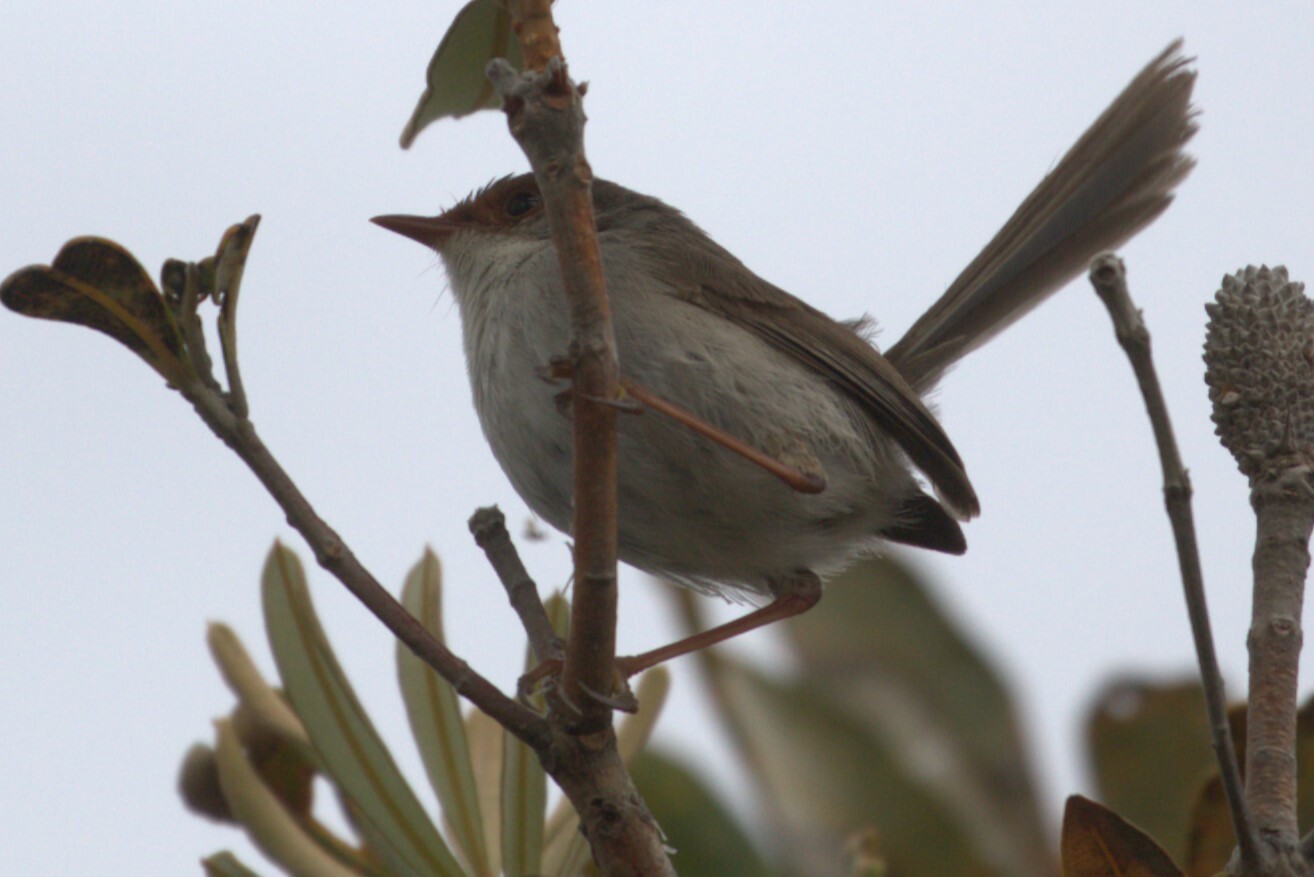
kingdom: Animalia
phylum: Chordata
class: Aves
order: Passeriformes
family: Maluridae
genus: Malurus
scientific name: Malurus cyaneus
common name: Superb fairywren
